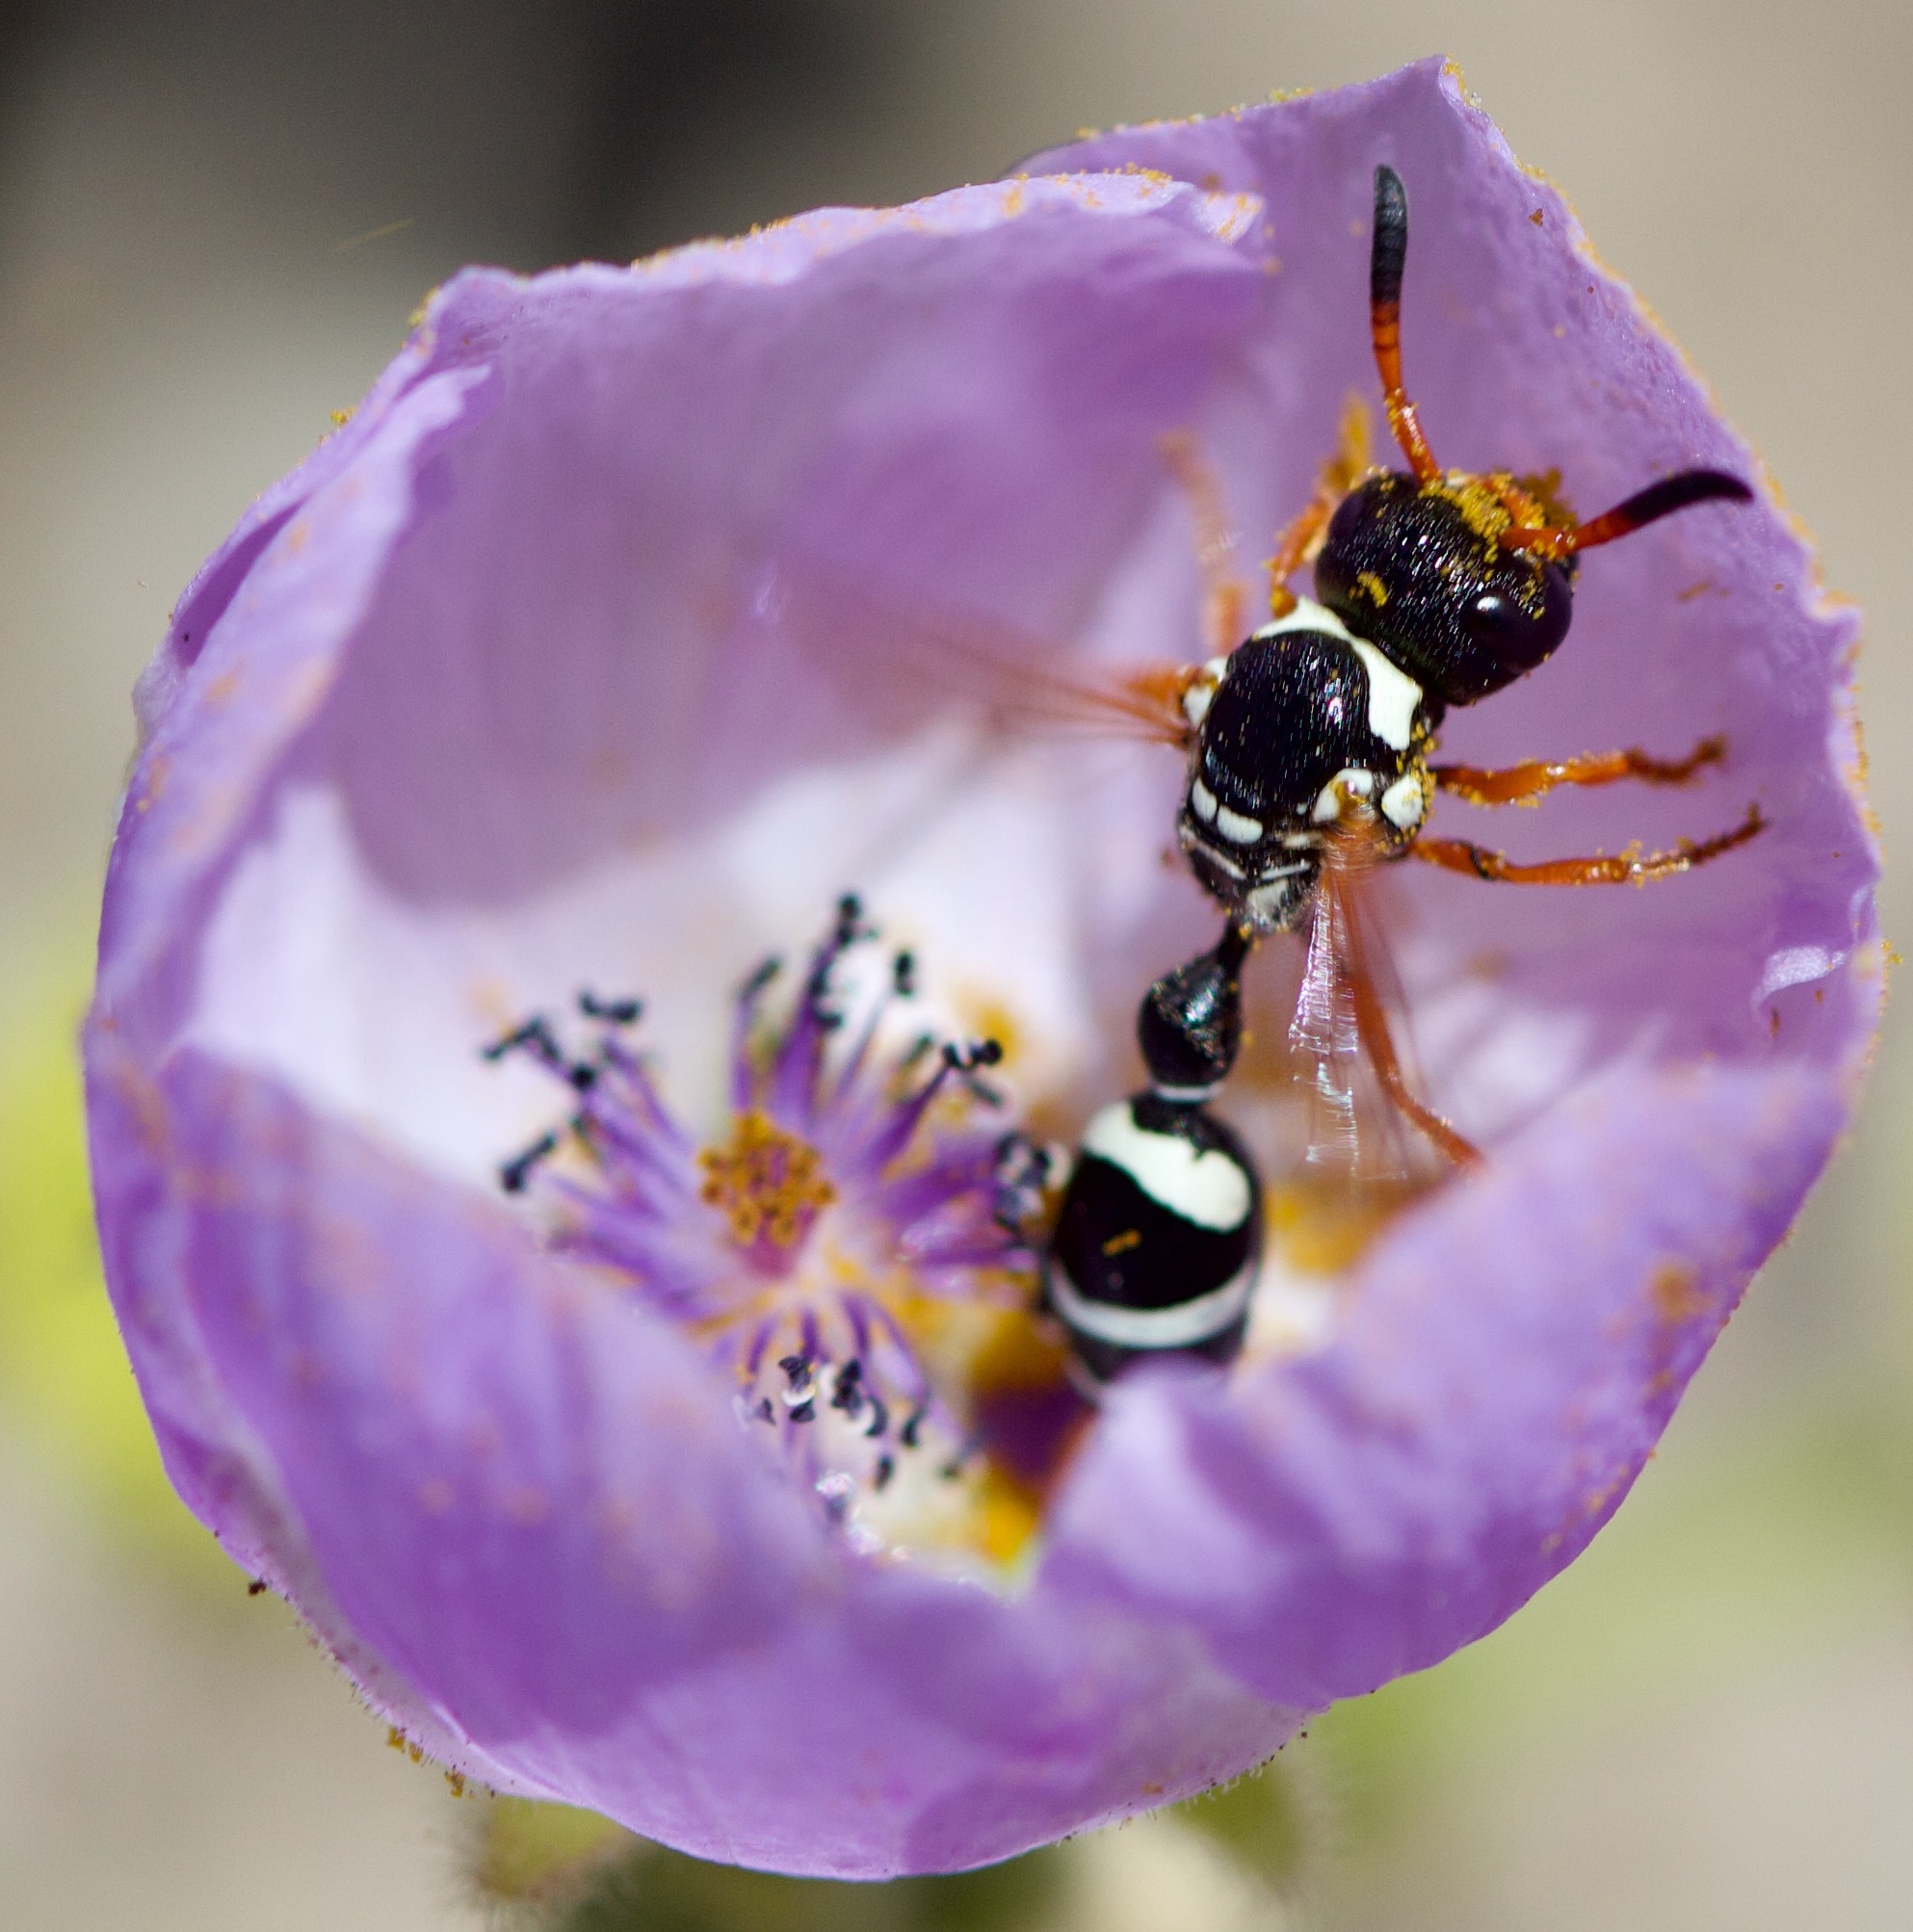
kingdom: Animalia
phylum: Arthropoda
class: Insecta
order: Hymenoptera
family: Eumenidae
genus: Zethus
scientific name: Zethus
